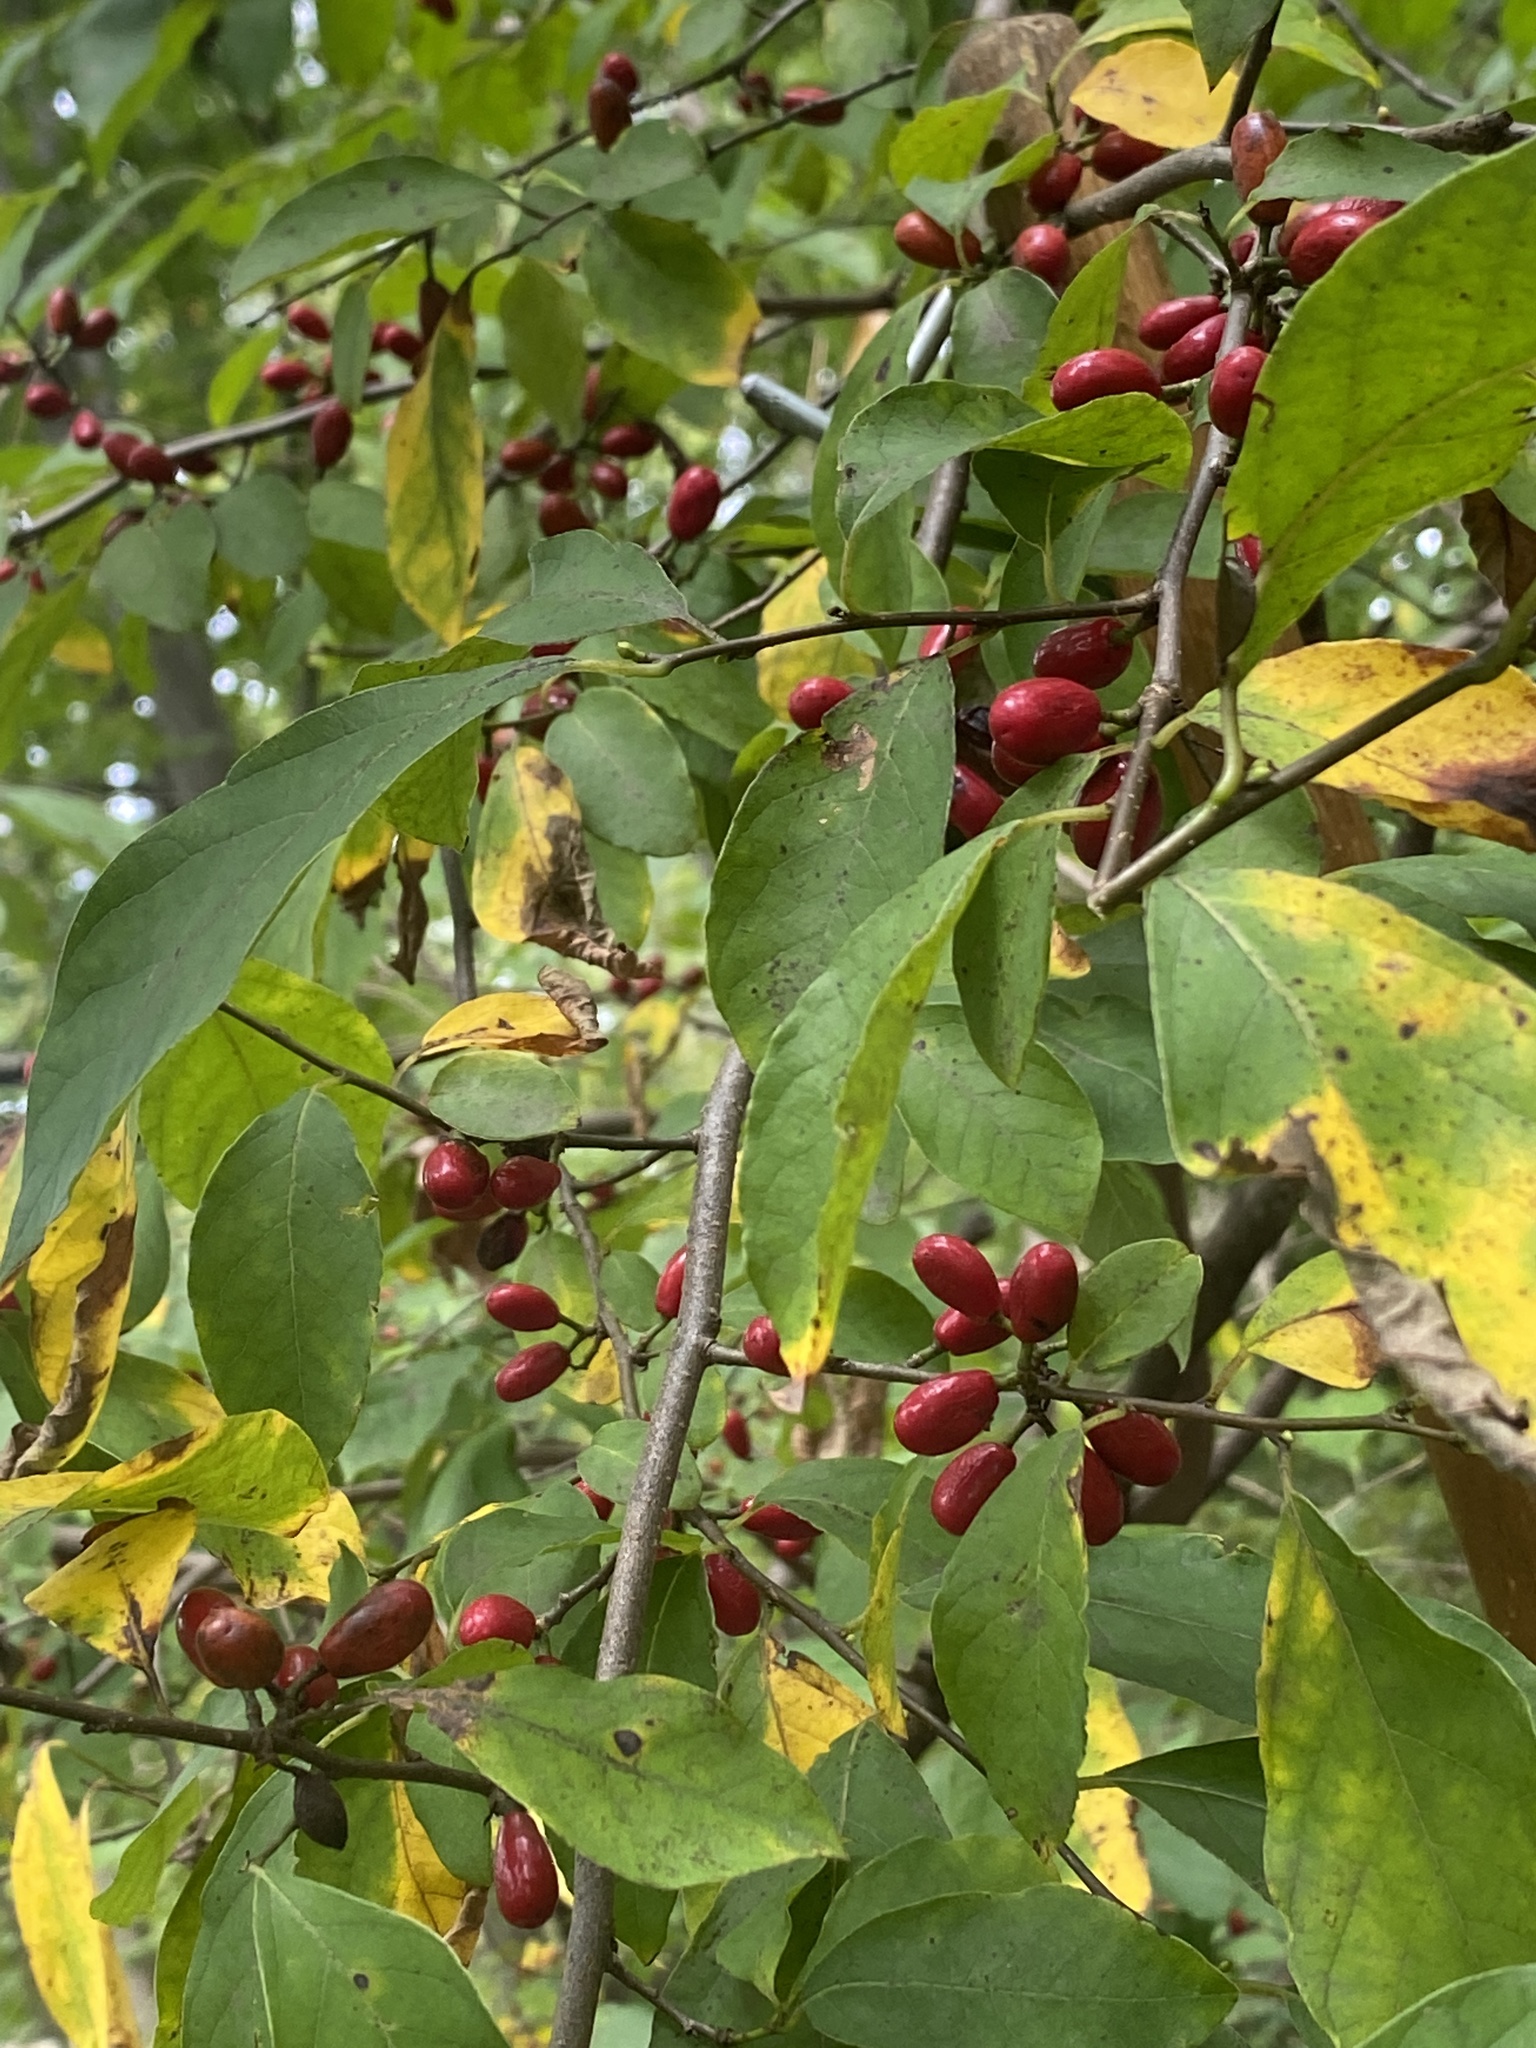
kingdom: Plantae
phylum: Tracheophyta
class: Magnoliopsida
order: Laurales
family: Lauraceae
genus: Lindera
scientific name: Lindera benzoin
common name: Spicebush
